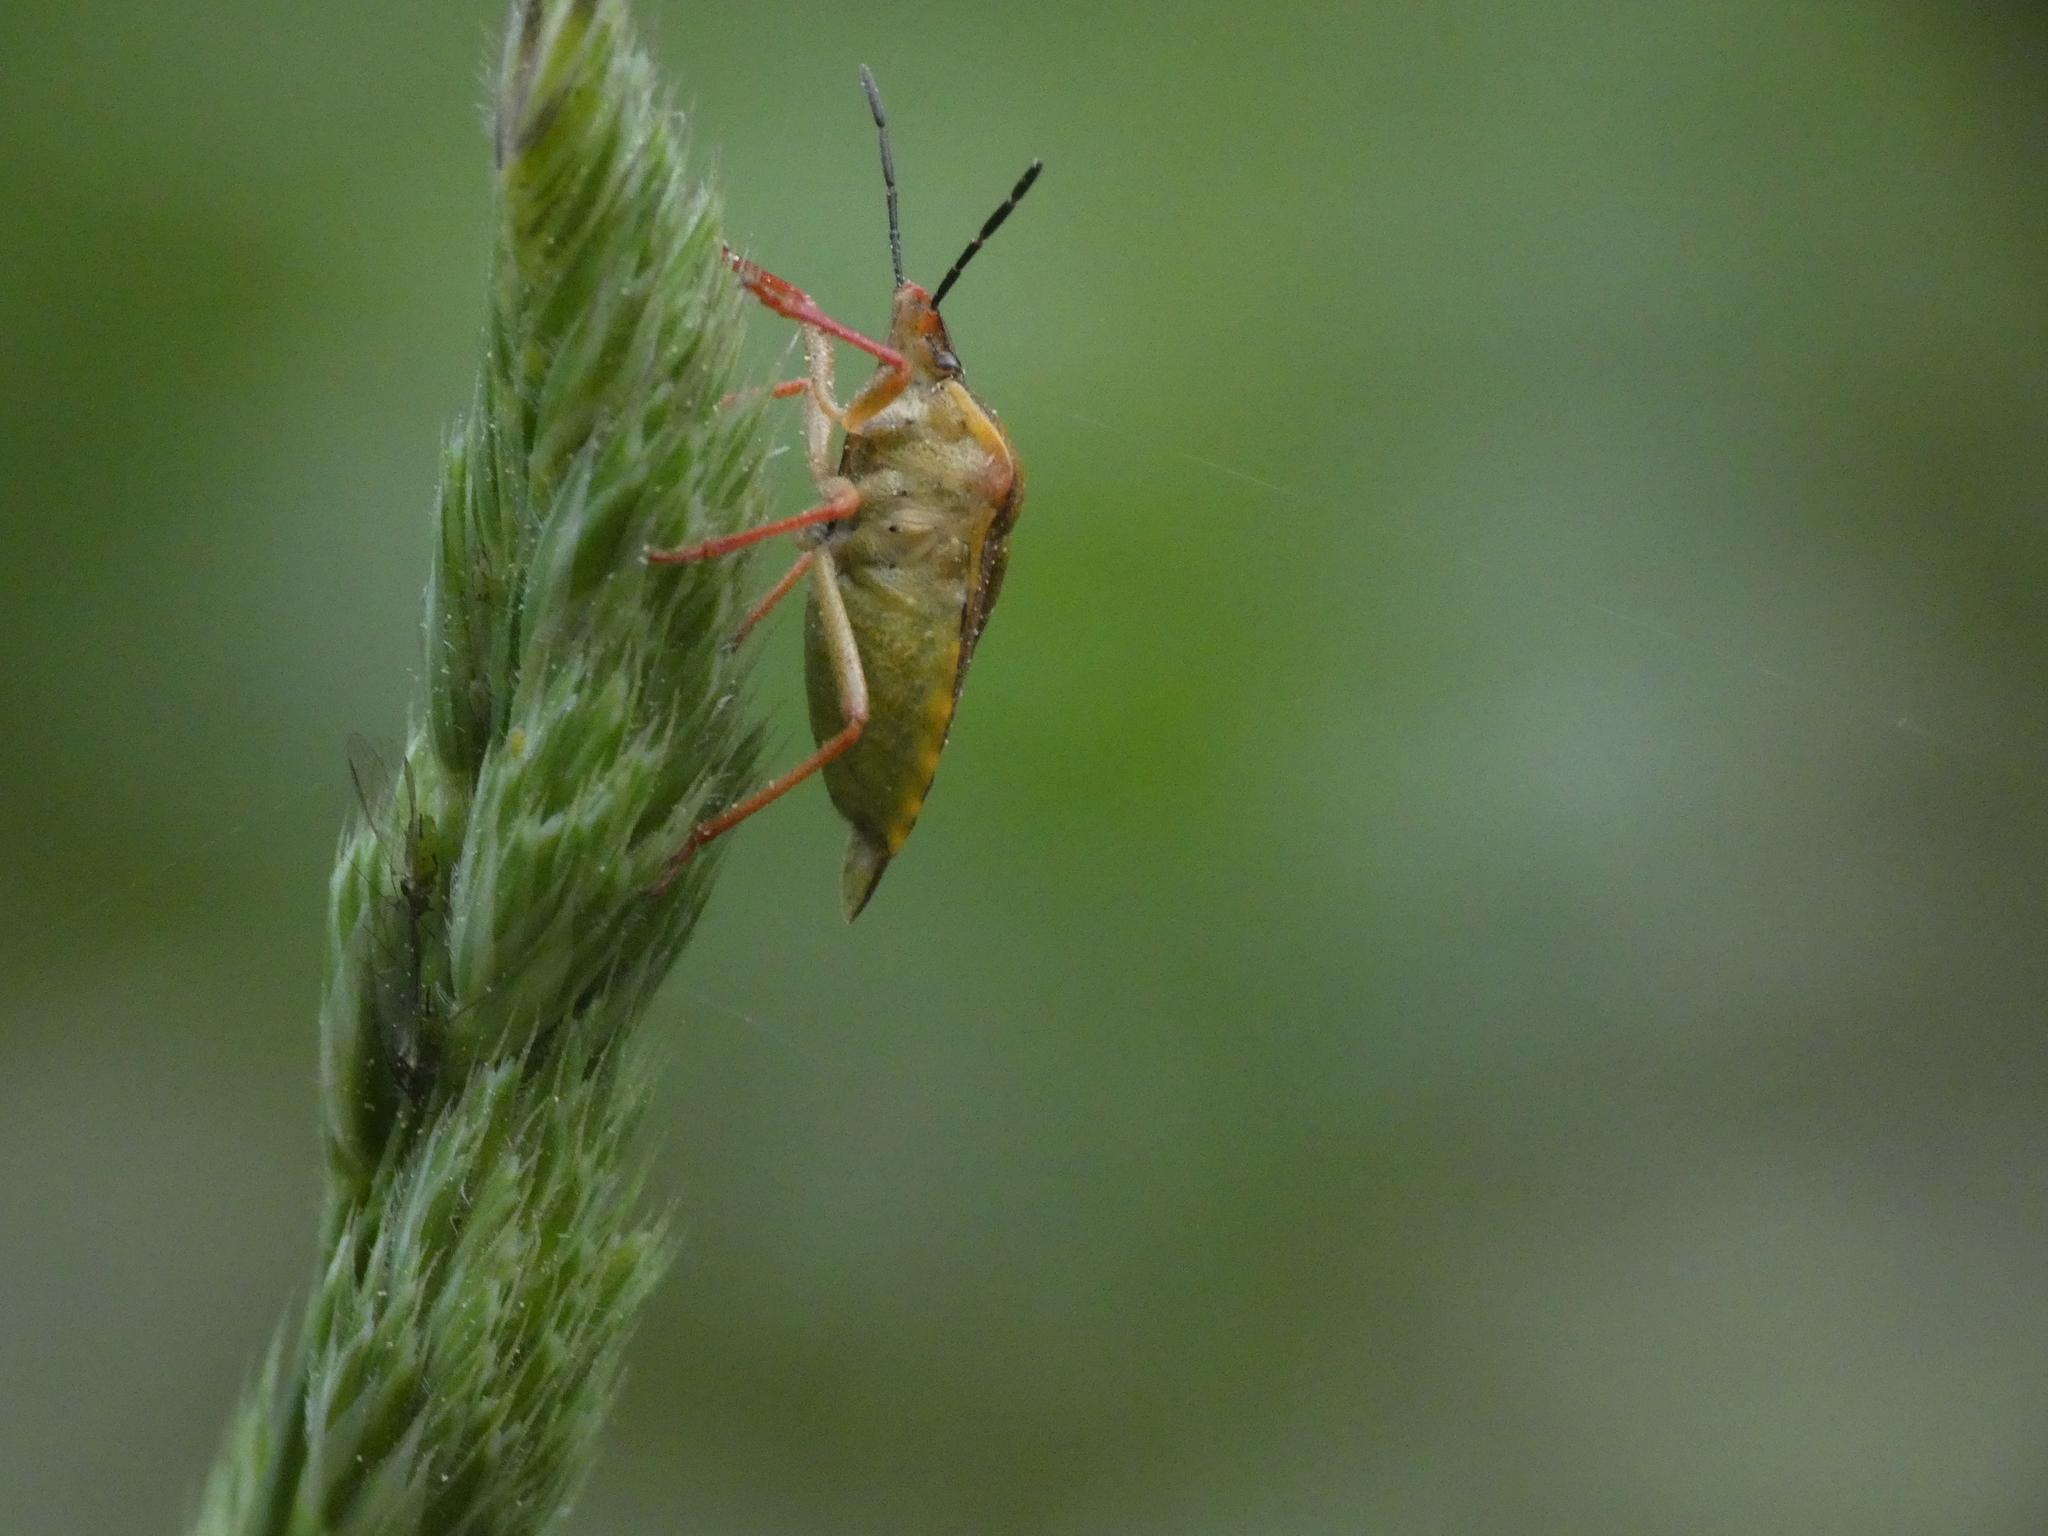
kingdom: Animalia
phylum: Arthropoda
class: Insecta
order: Hemiptera
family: Pentatomidae
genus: Carpocoris
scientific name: Carpocoris purpureipennis
